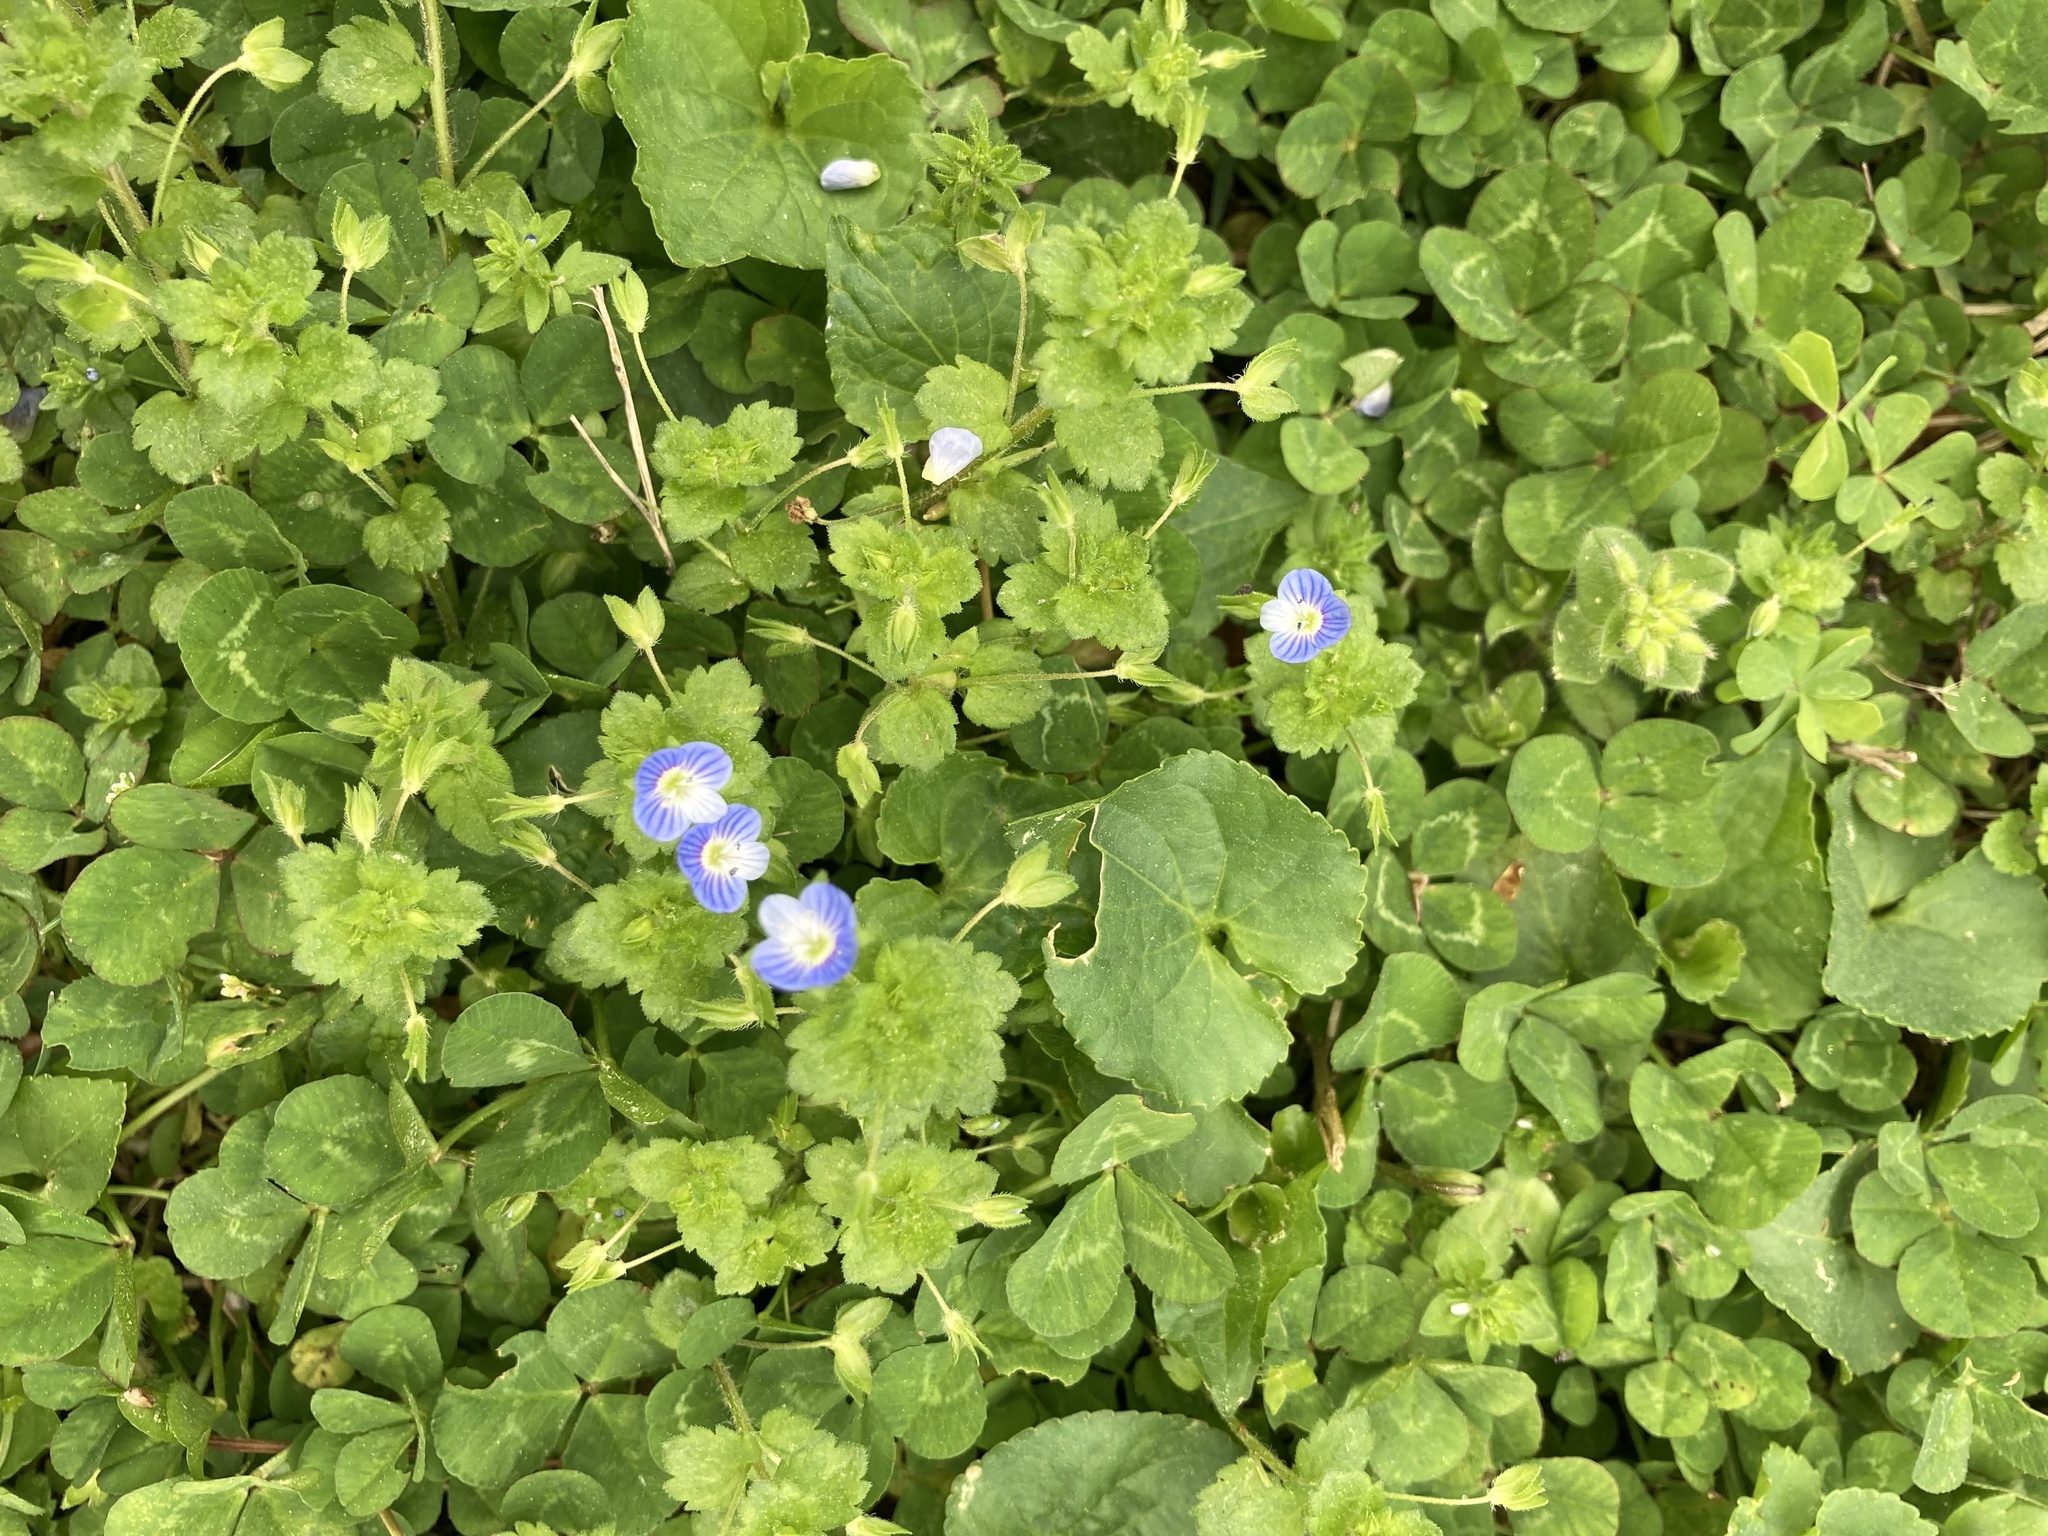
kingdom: Plantae
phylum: Tracheophyta
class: Magnoliopsida
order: Lamiales
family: Plantaginaceae
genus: Veronica
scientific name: Veronica persica
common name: Common field-speedwell
